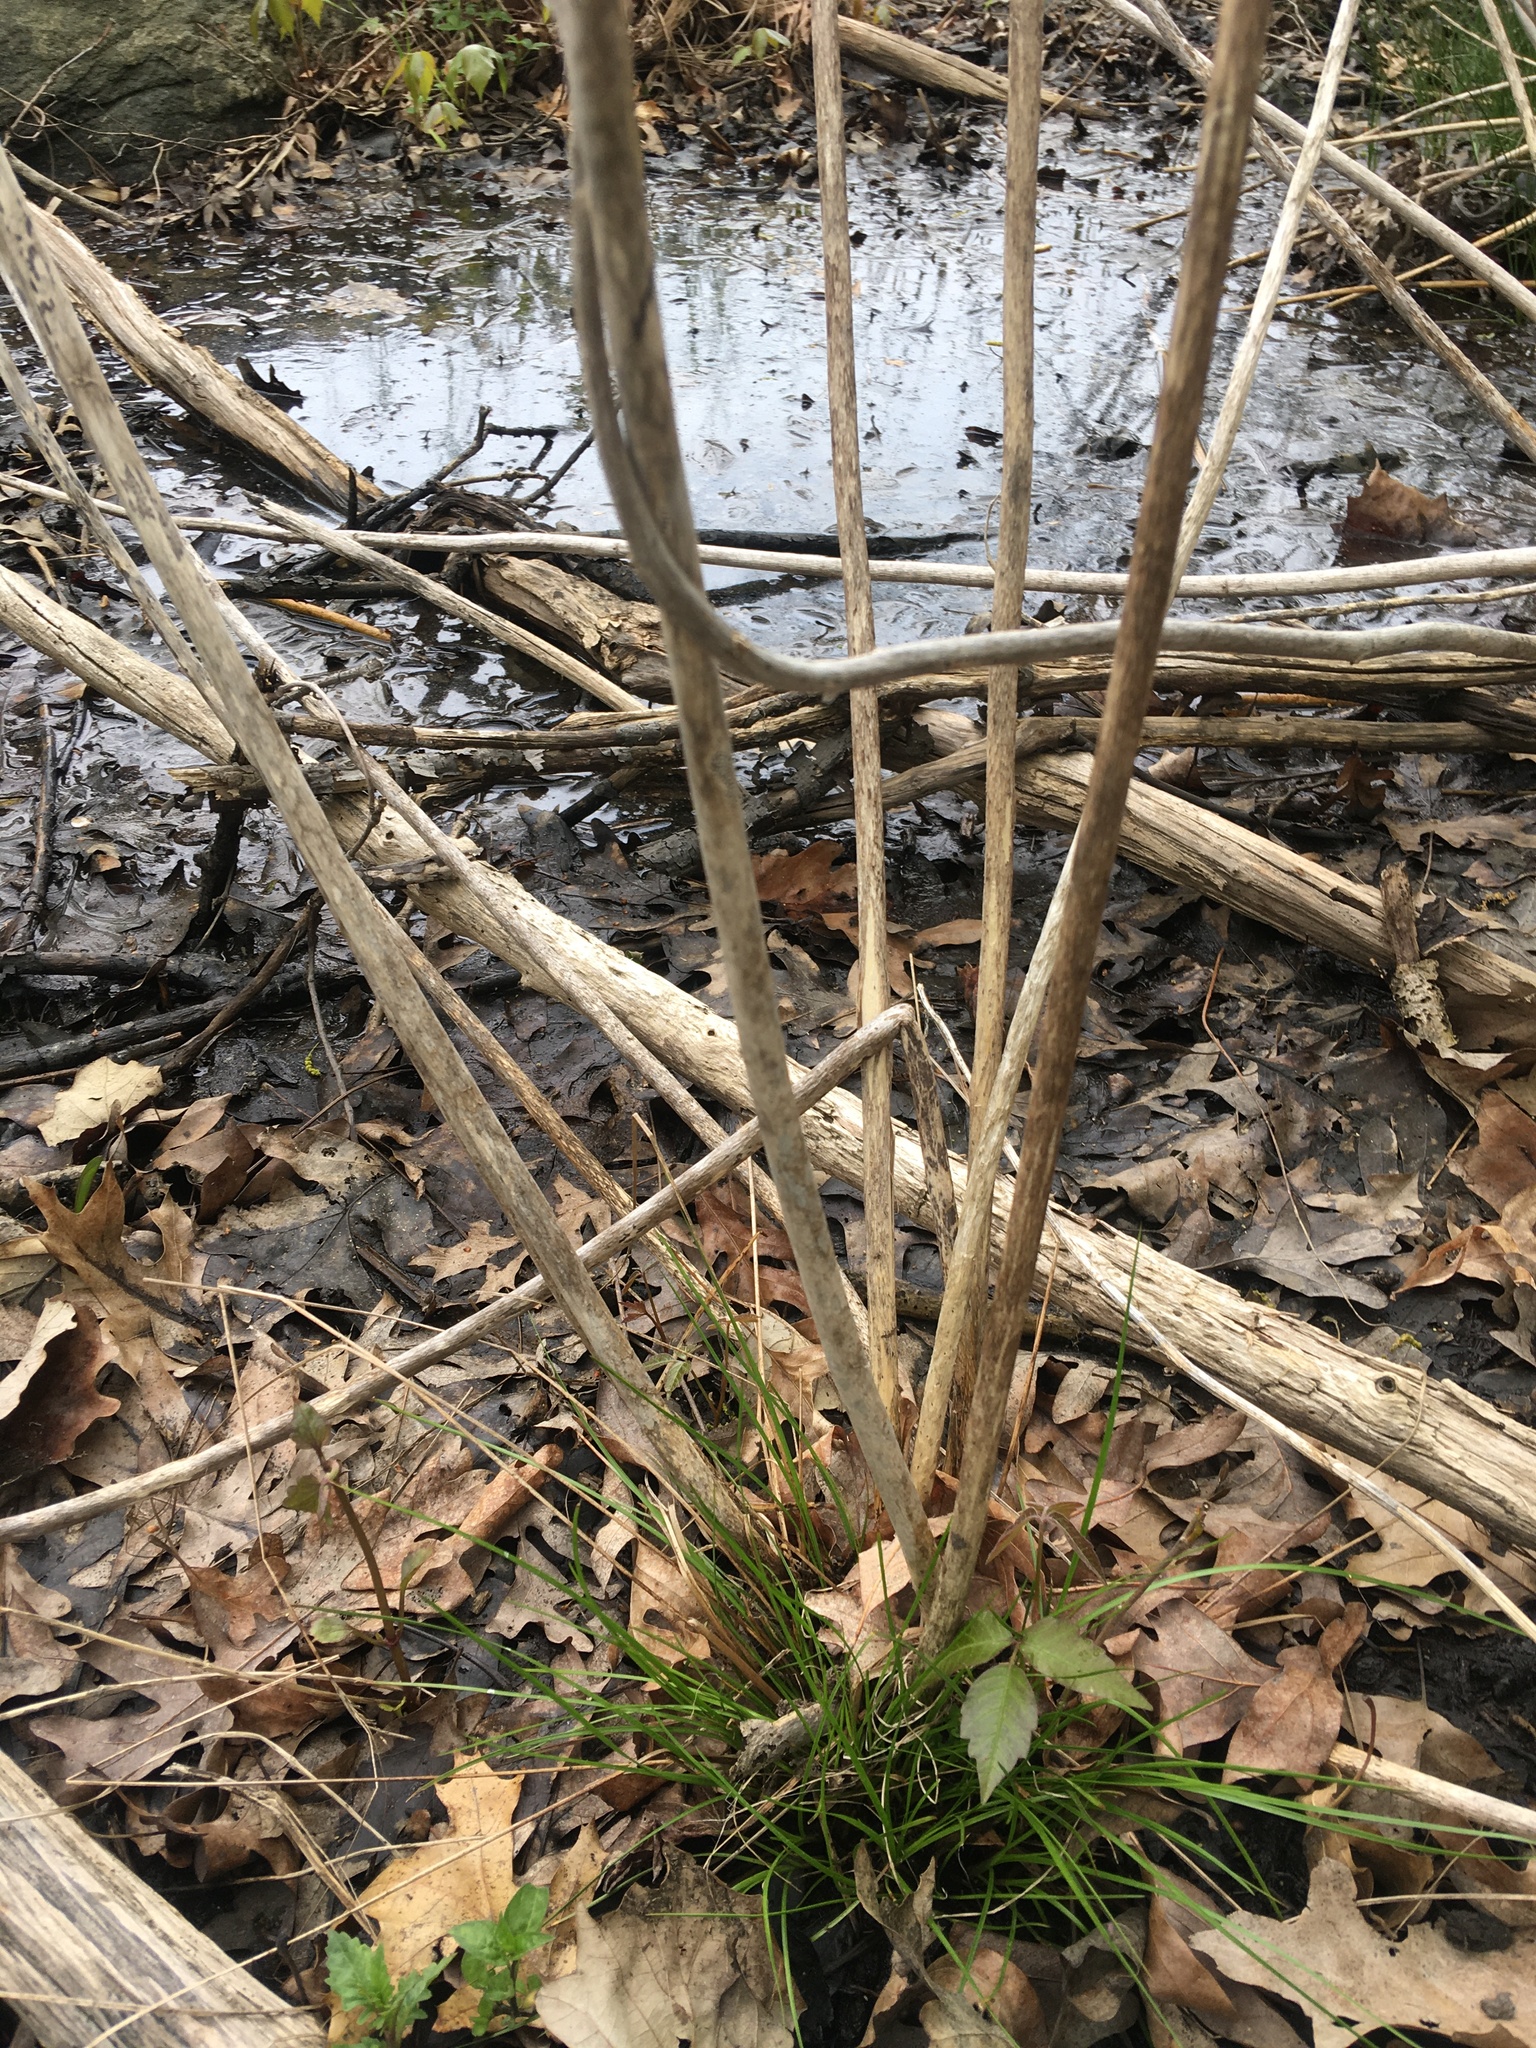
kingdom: Plantae
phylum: Tracheophyta
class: Magnoliopsida
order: Malvales
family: Malvaceae
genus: Hibiscus
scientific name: Hibiscus moscheutos
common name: Common rose-mallow
